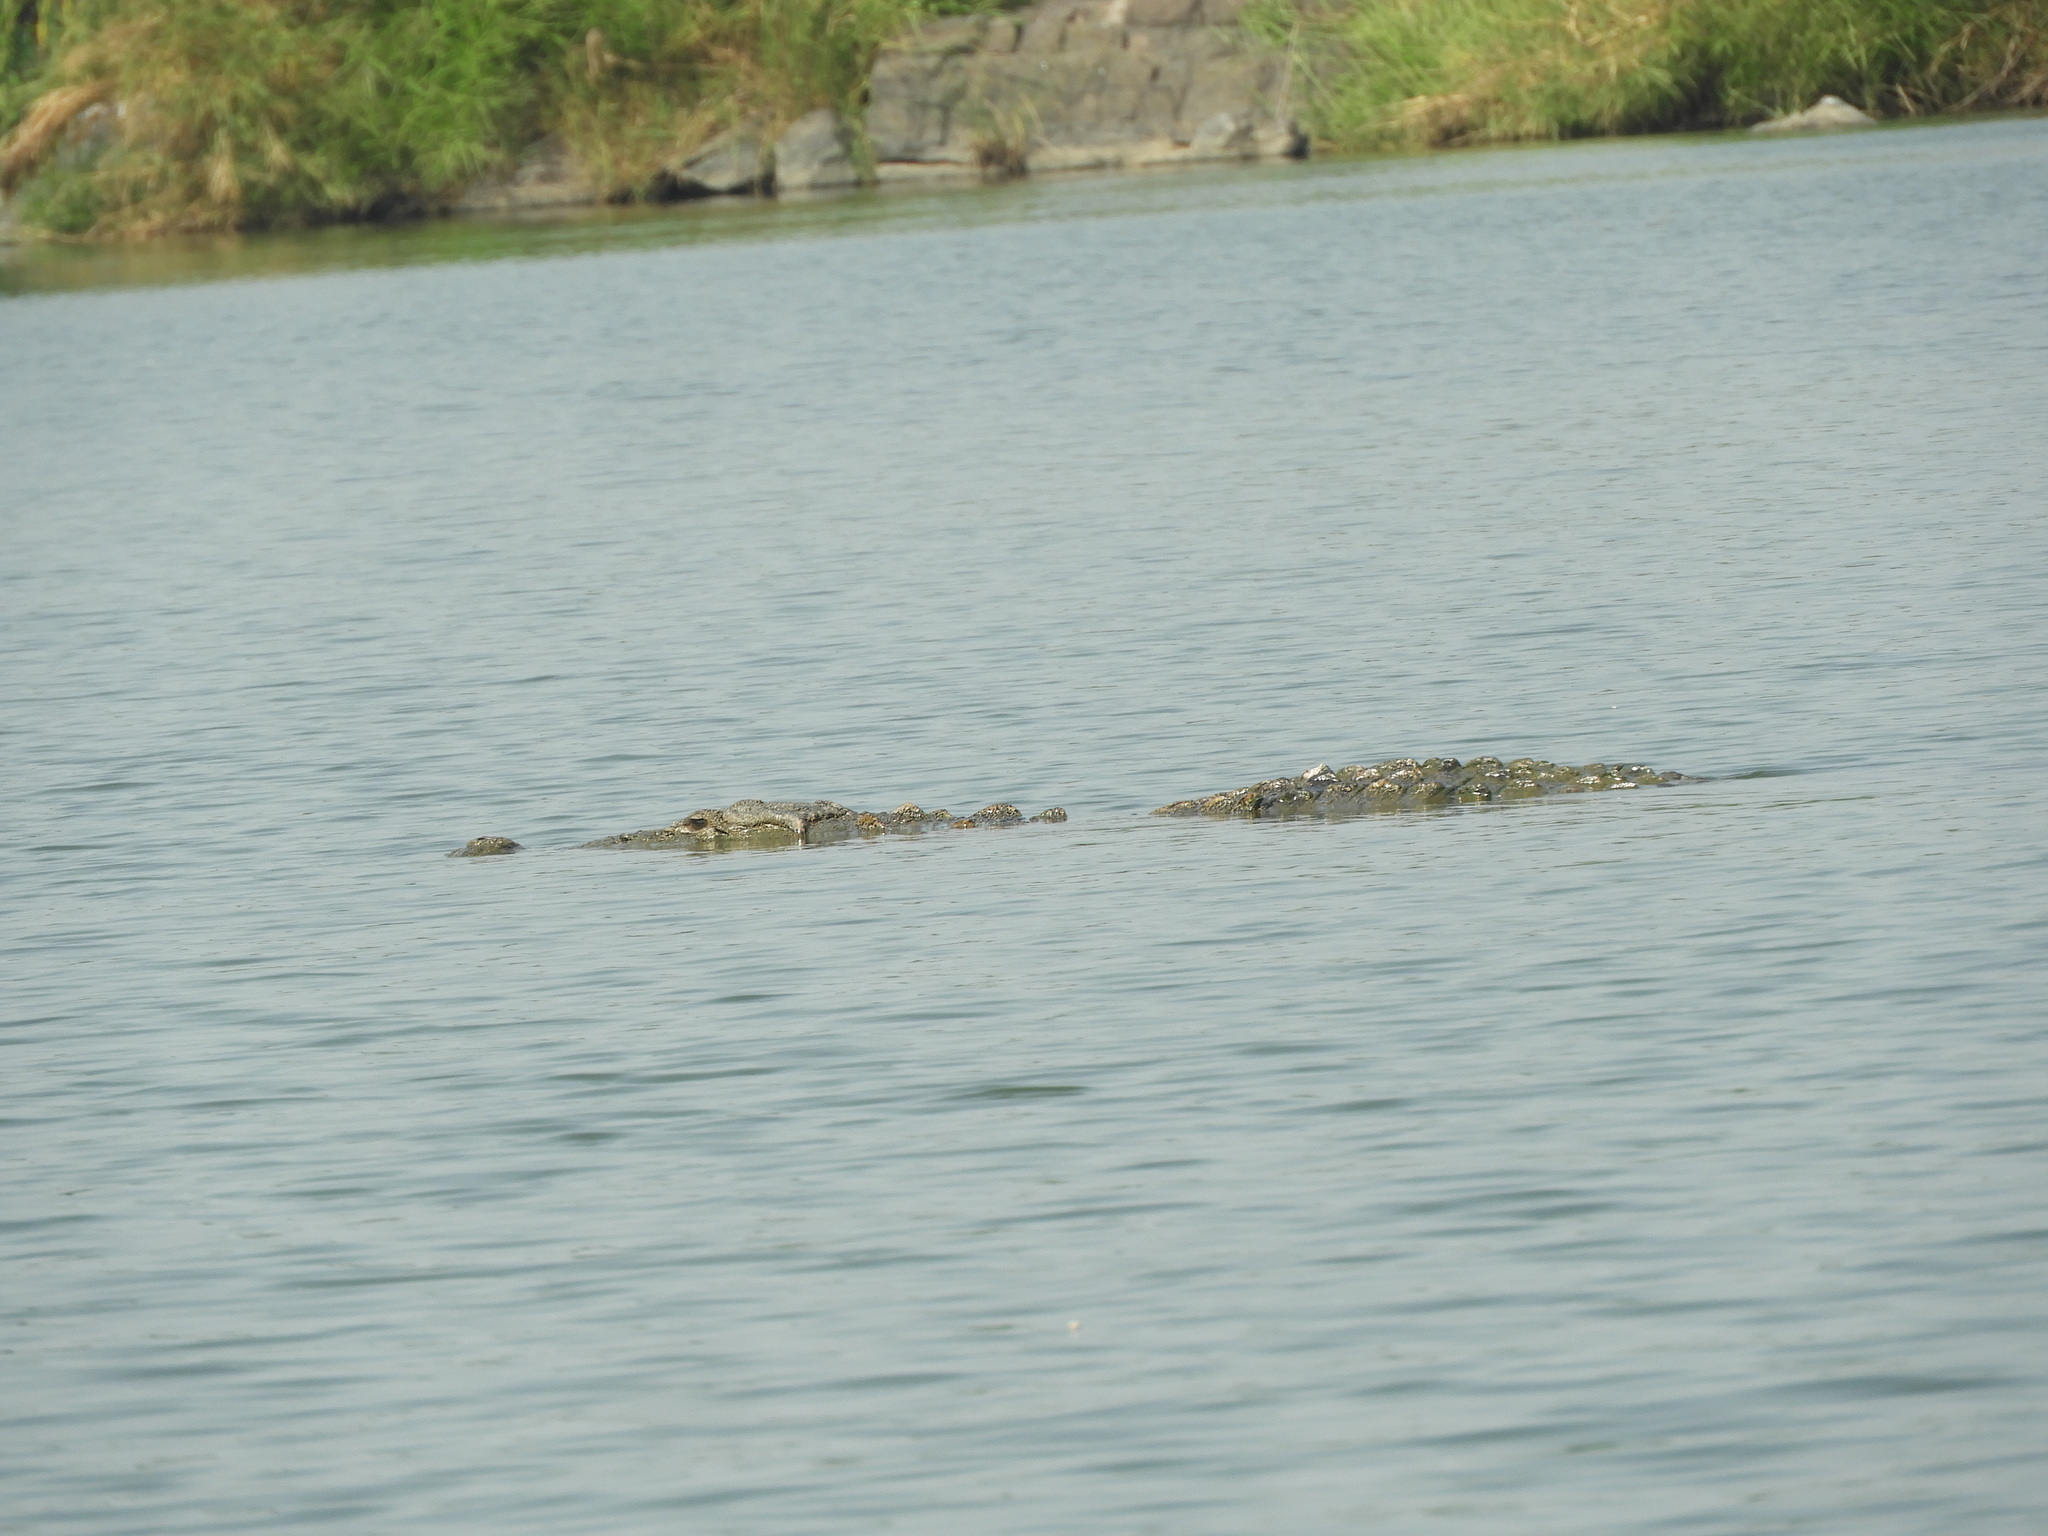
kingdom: Animalia
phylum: Chordata
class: Crocodylia
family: Crocodylidae
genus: Crocodylus
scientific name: Crocodylus palustris
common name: Mugger crocodile
